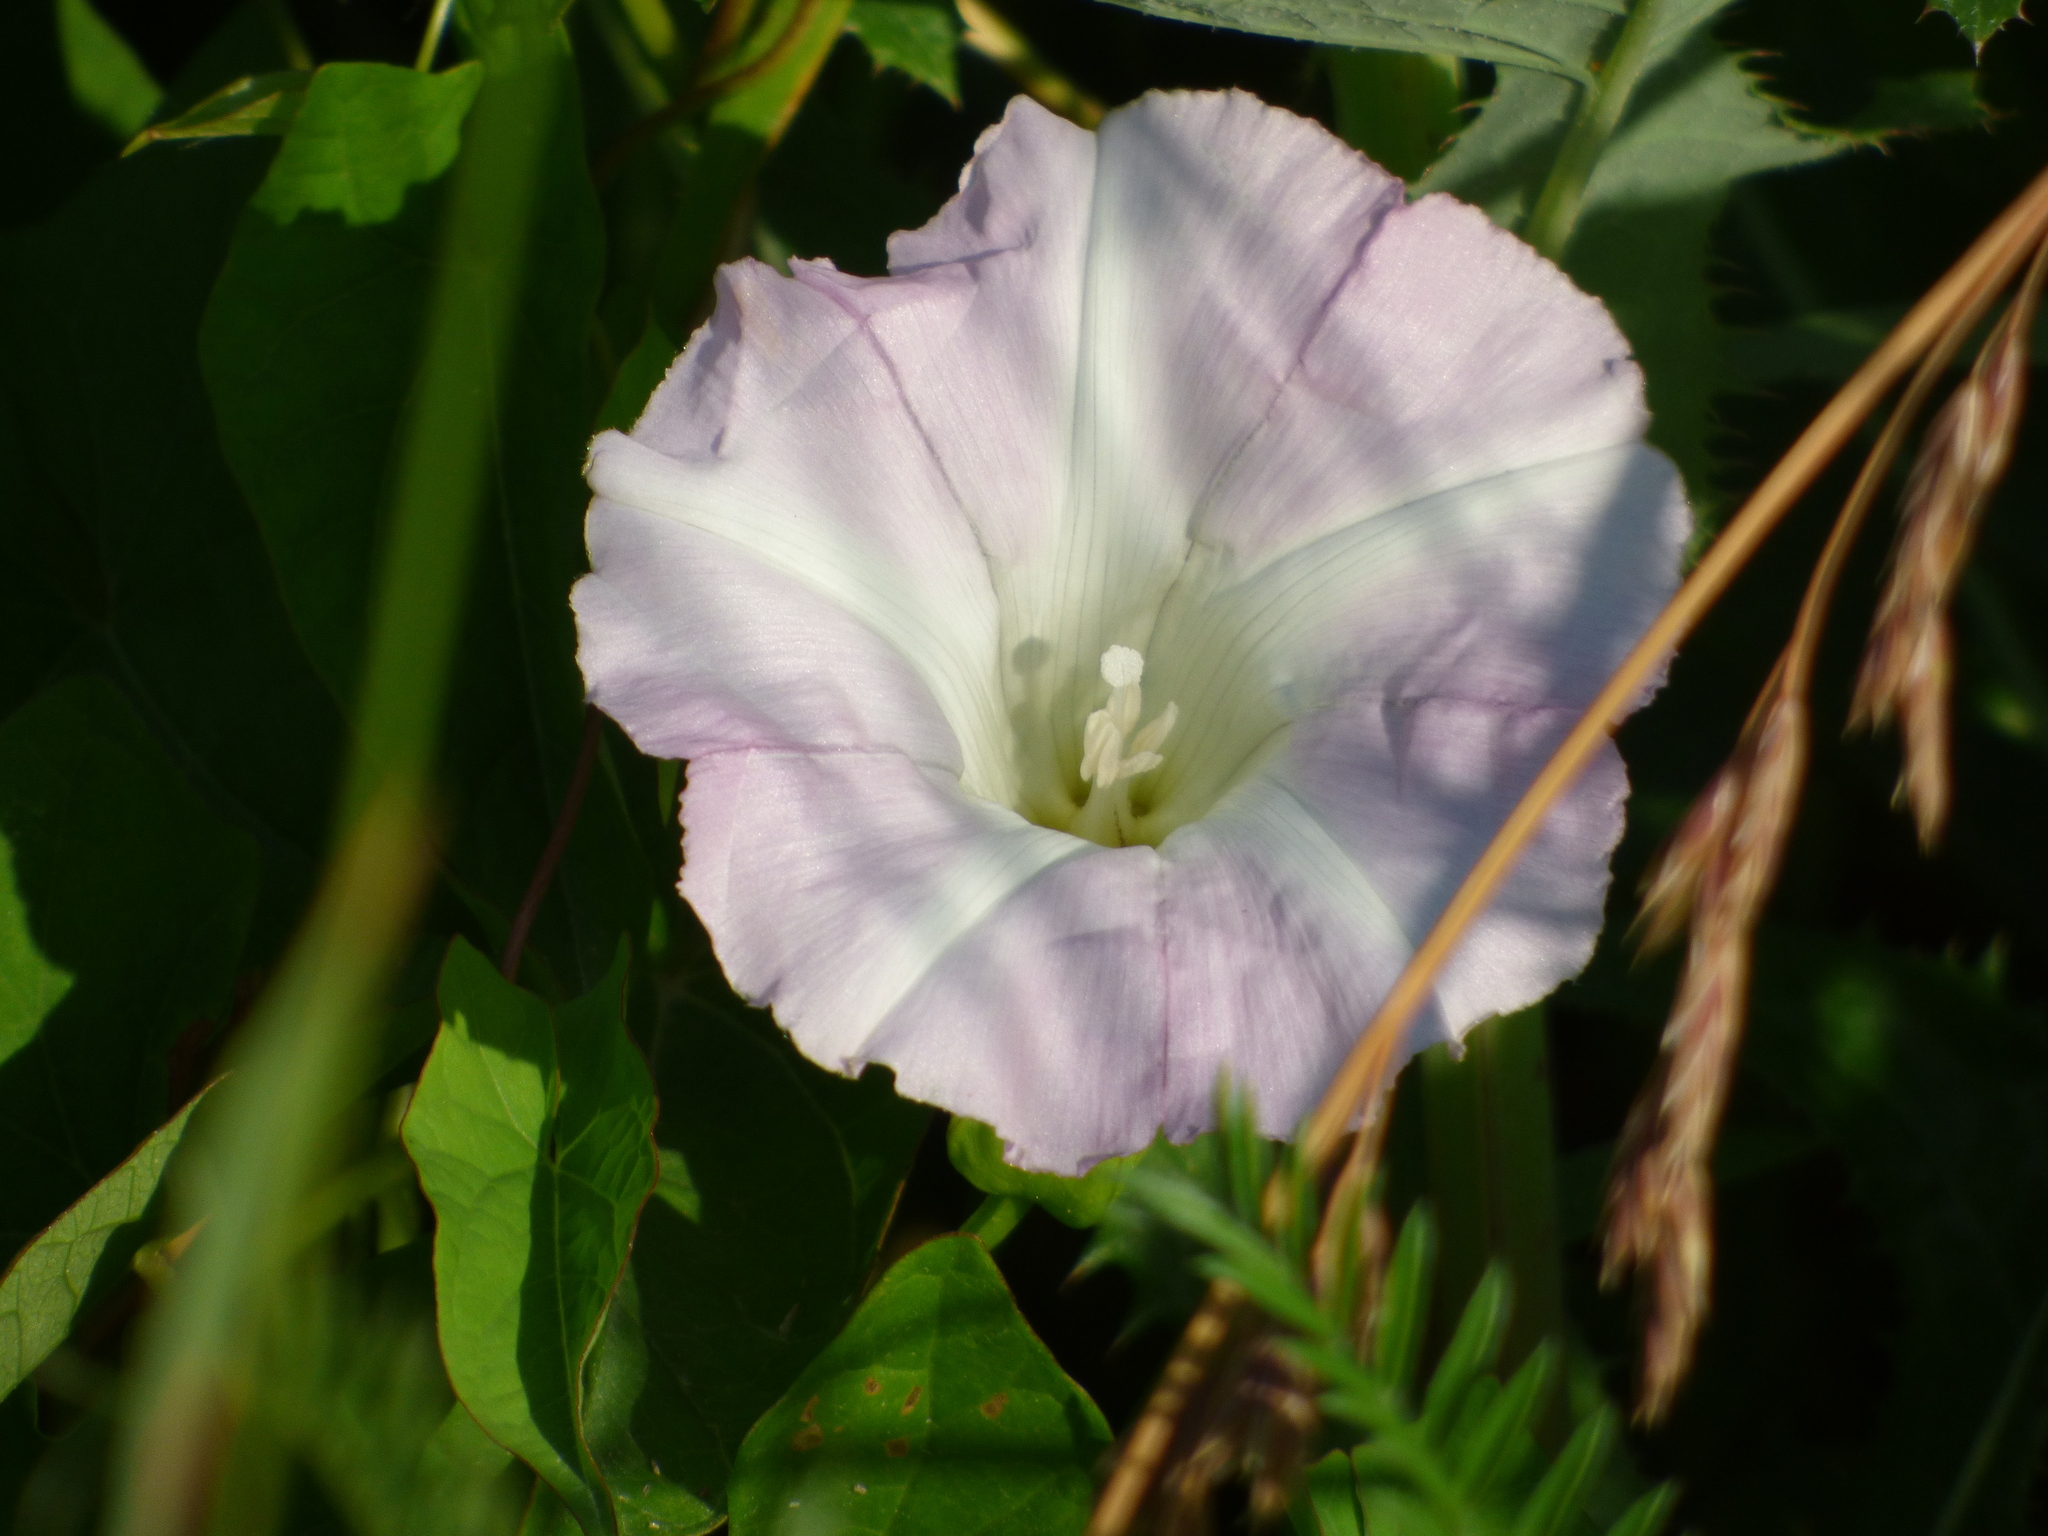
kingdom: Plantae
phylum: Tracheophyta
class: Magnoliopsida
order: Solanales
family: Convolvulaceae
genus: Calystegia
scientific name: Calystegia sepium
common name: Hedge bindweed
